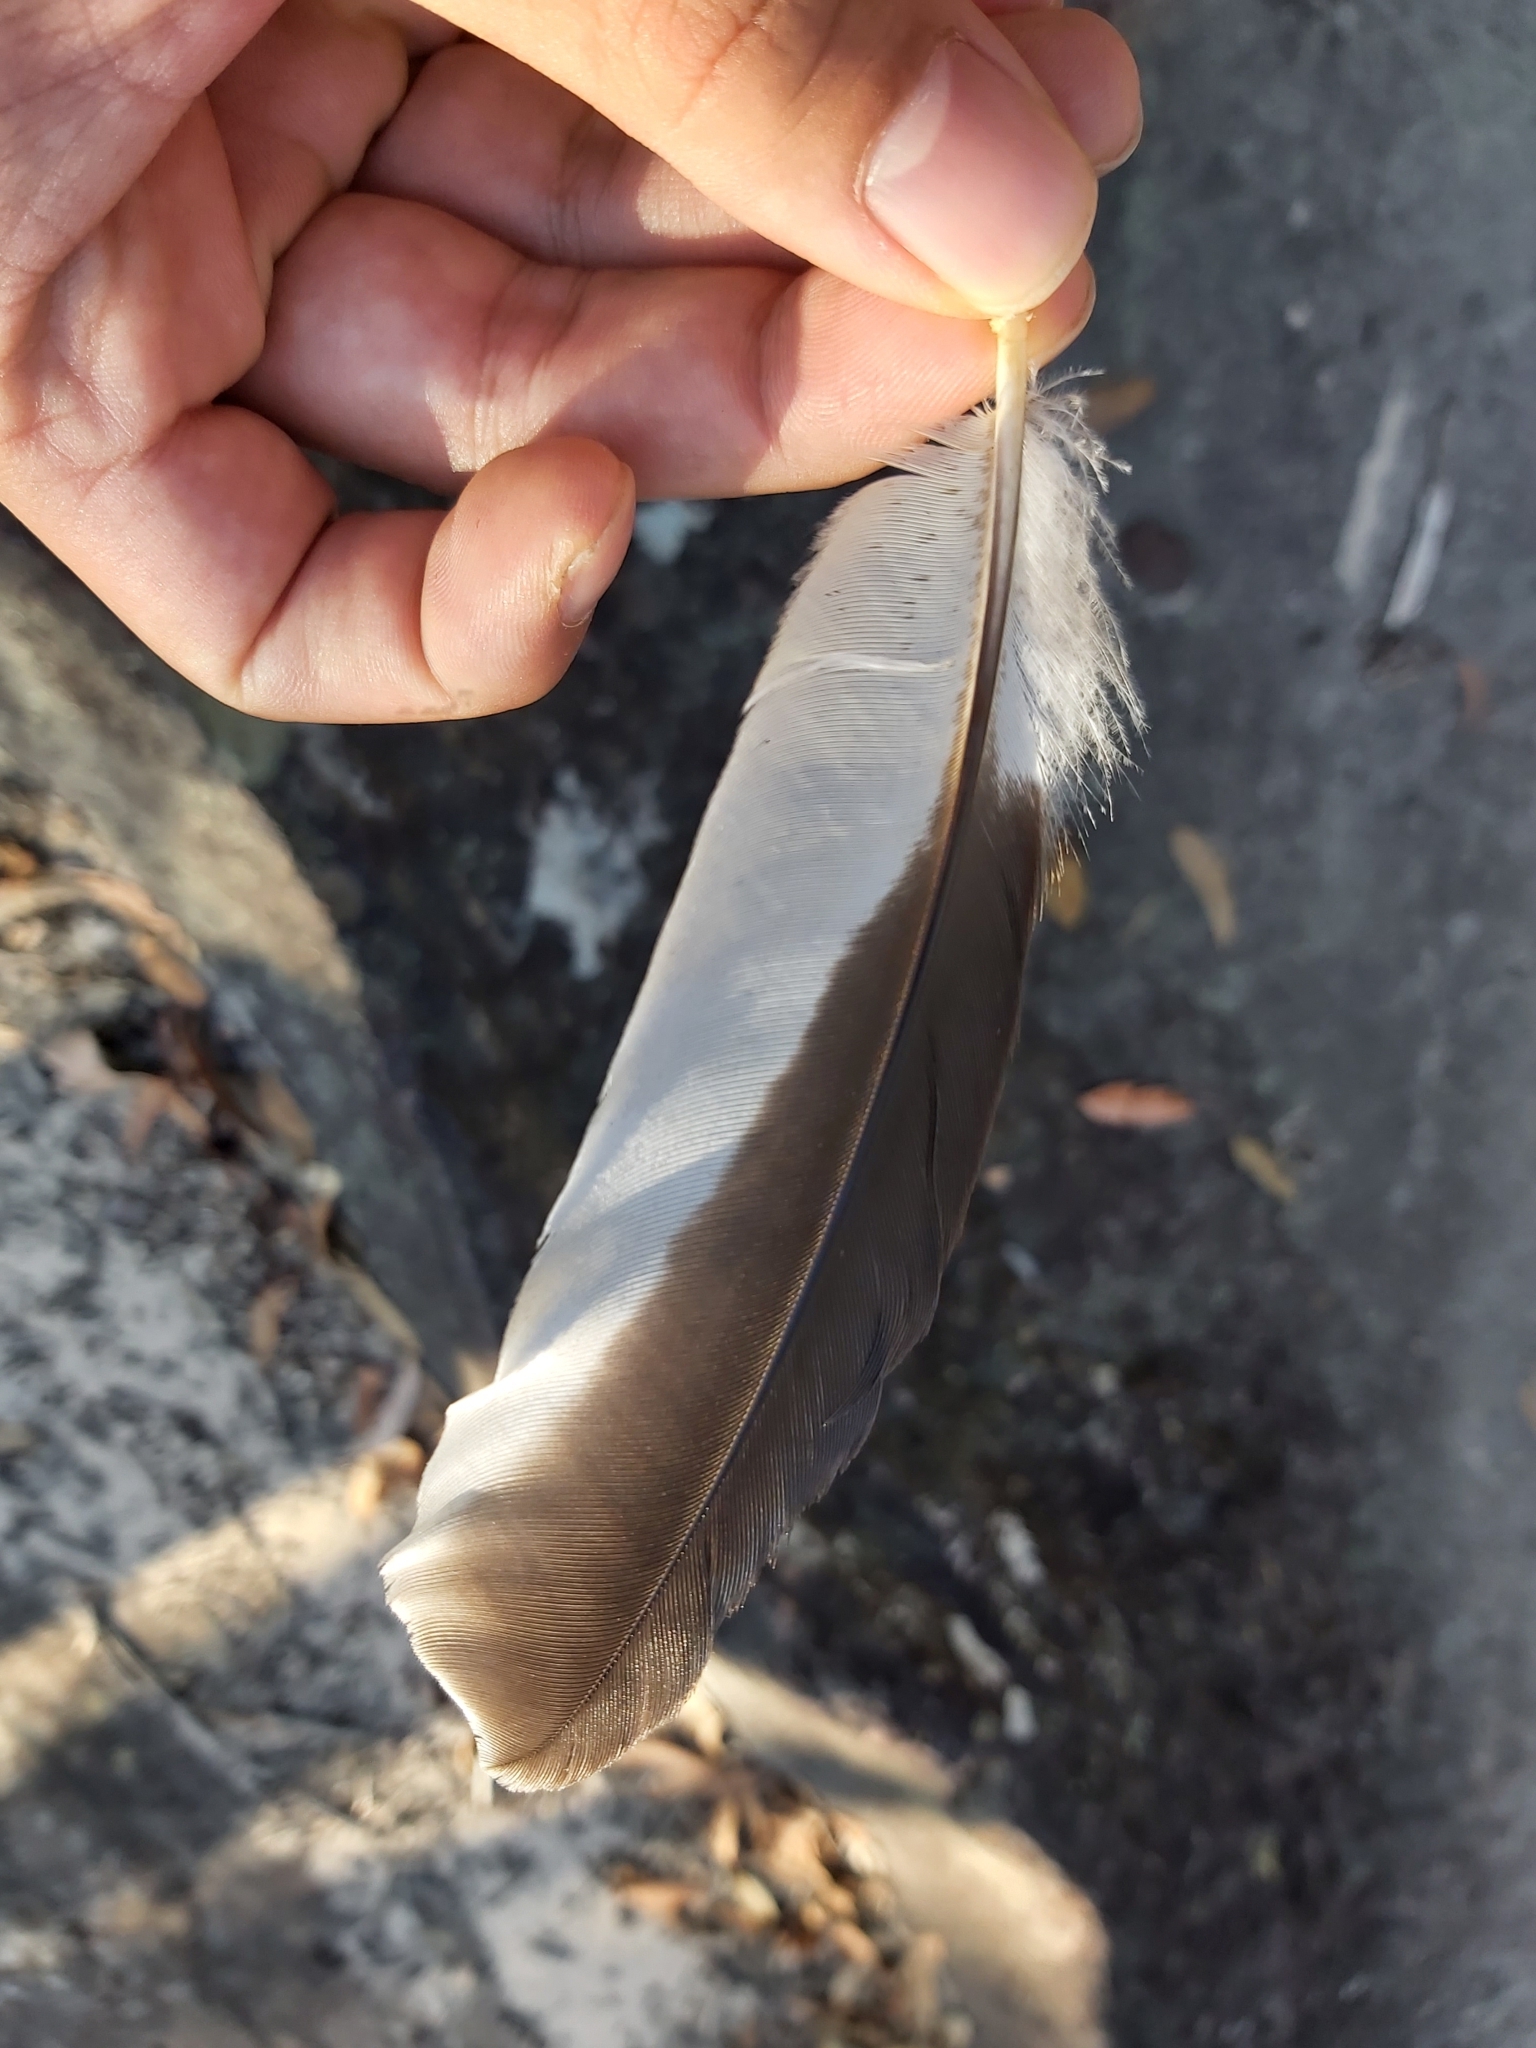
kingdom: Animalia
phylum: Chordata
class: Aves
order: Coraciiformes
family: Alcedinidae
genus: Dacelo
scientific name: Dacelo novaeguineae
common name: Laughing kookaburra
